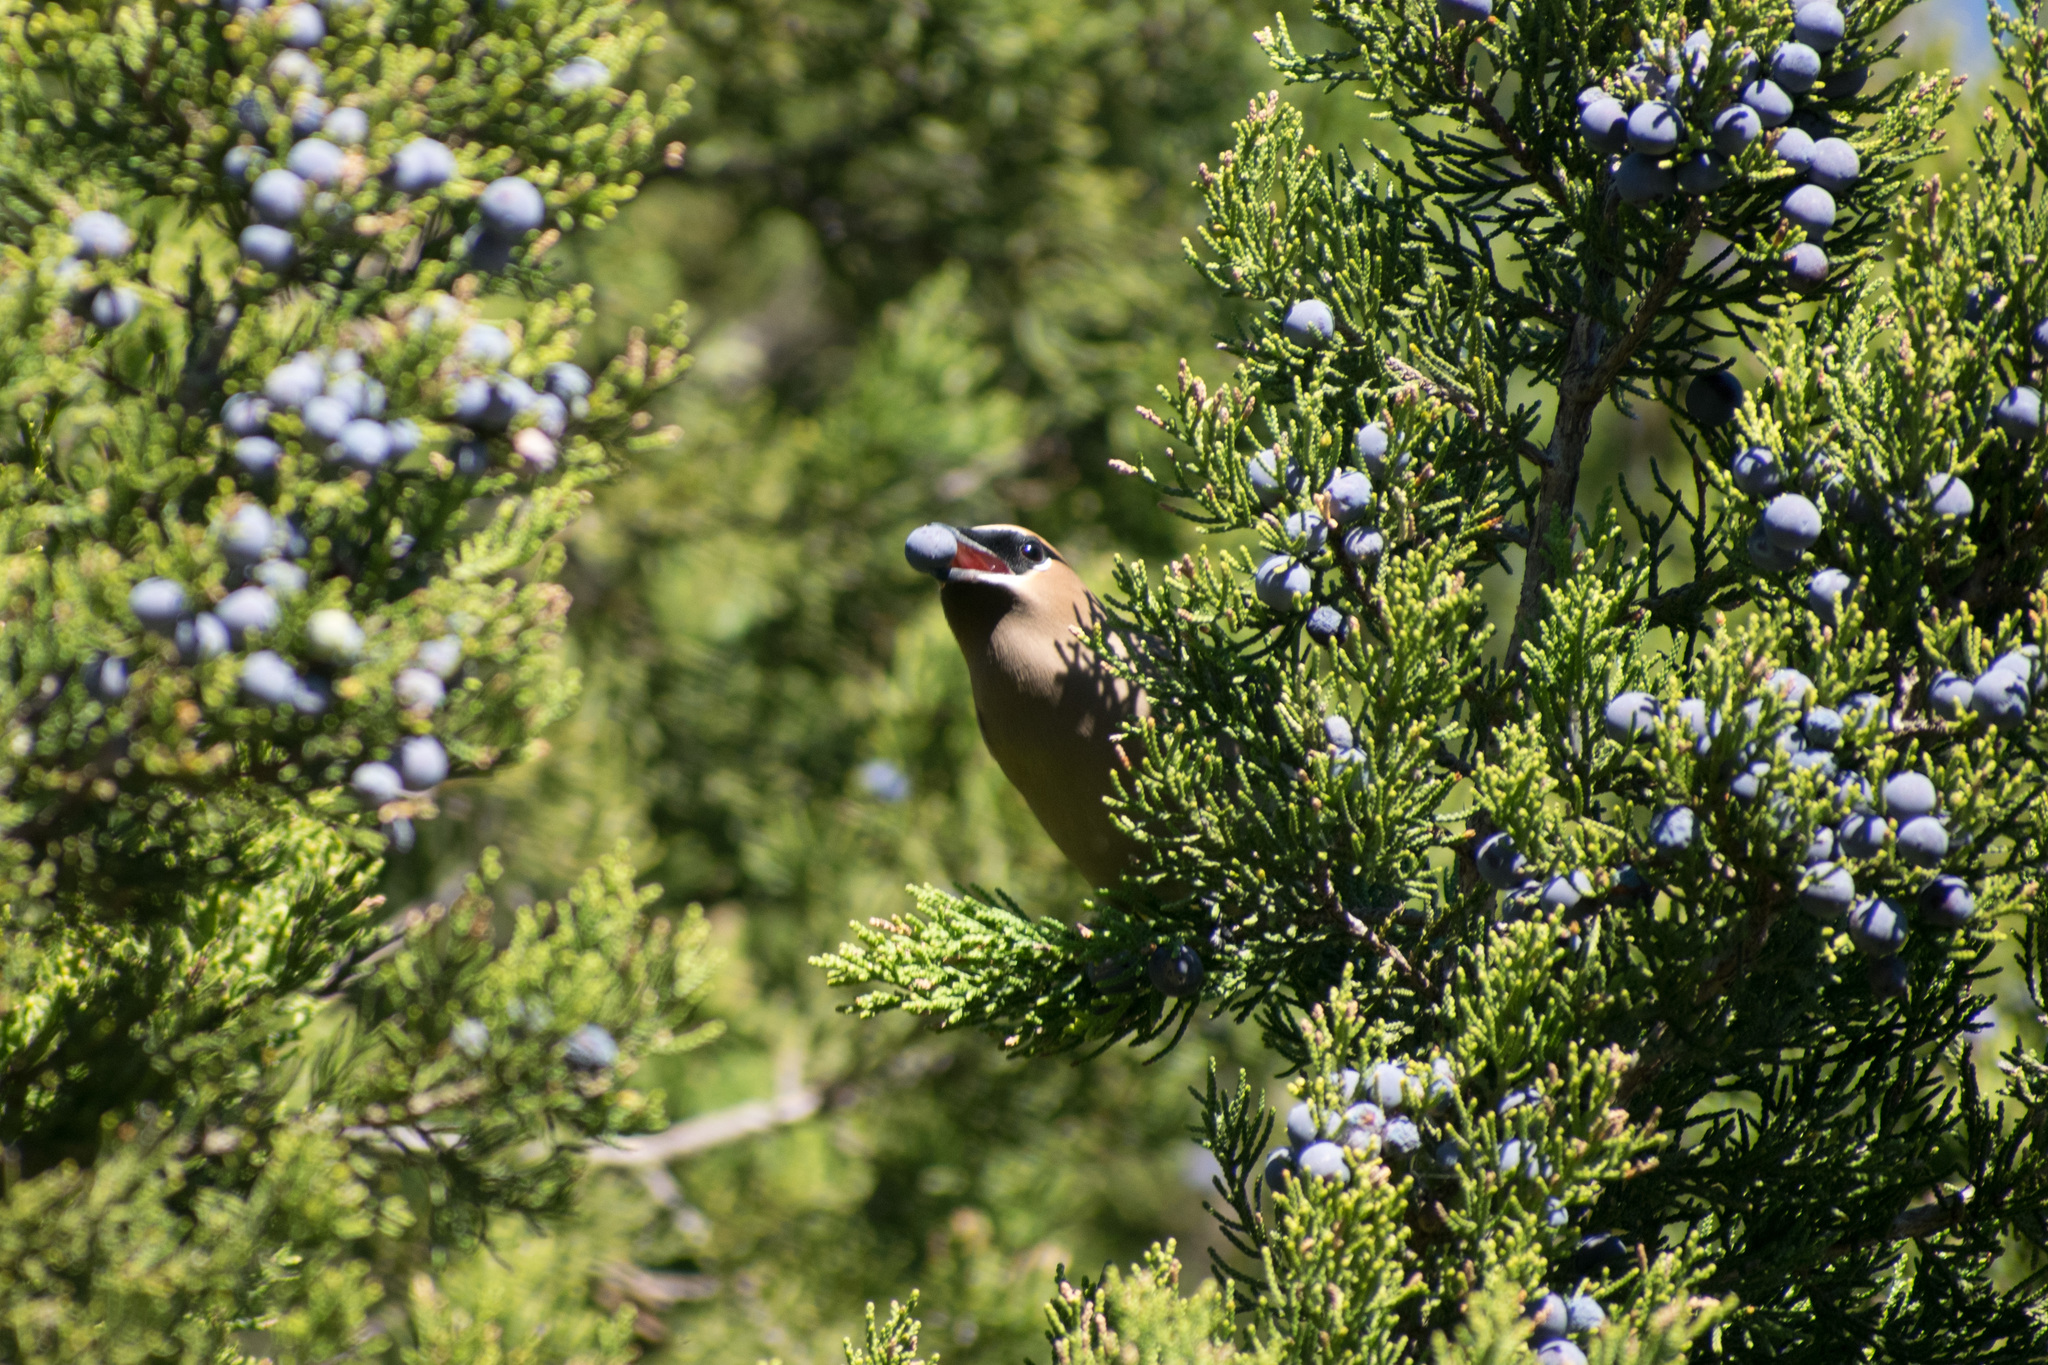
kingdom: Animalia
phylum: Chordata
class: Aves
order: Passeriformes
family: Bombycillidae
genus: Bombycilla
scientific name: Bombycilla cedrorum
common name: Cedar waxwing
